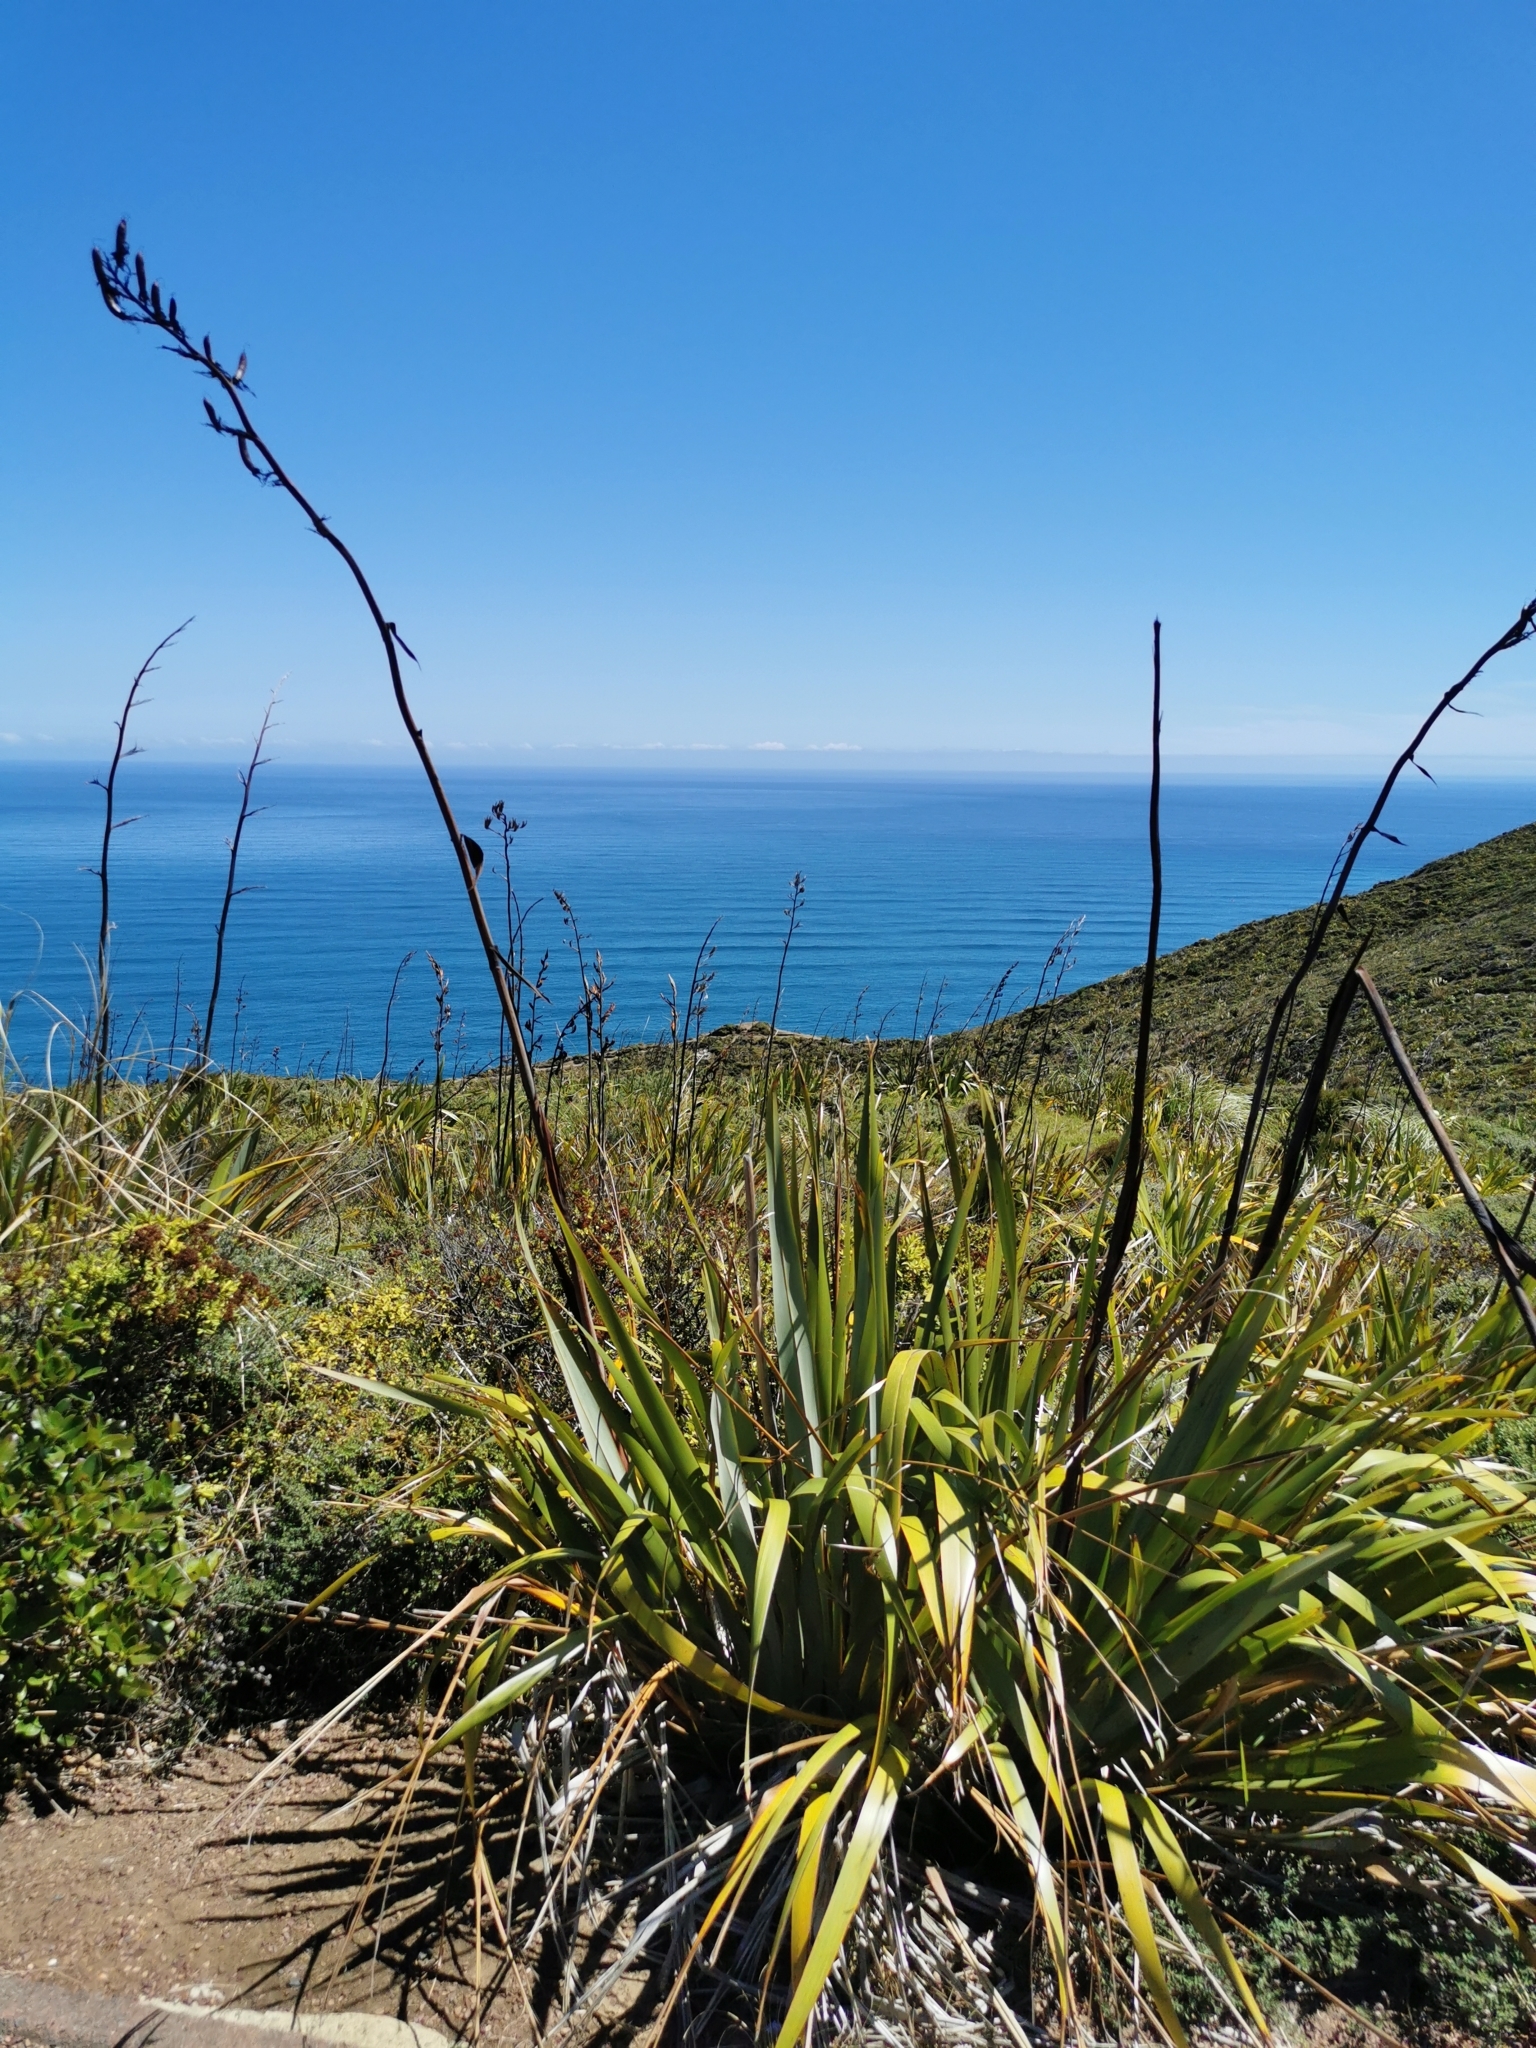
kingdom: Plantae
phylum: Tracheophyta
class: Liliopsida
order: Asparagales
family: Asphodelaceae
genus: Phormium
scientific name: Phormium tenax
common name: New zealand flax
